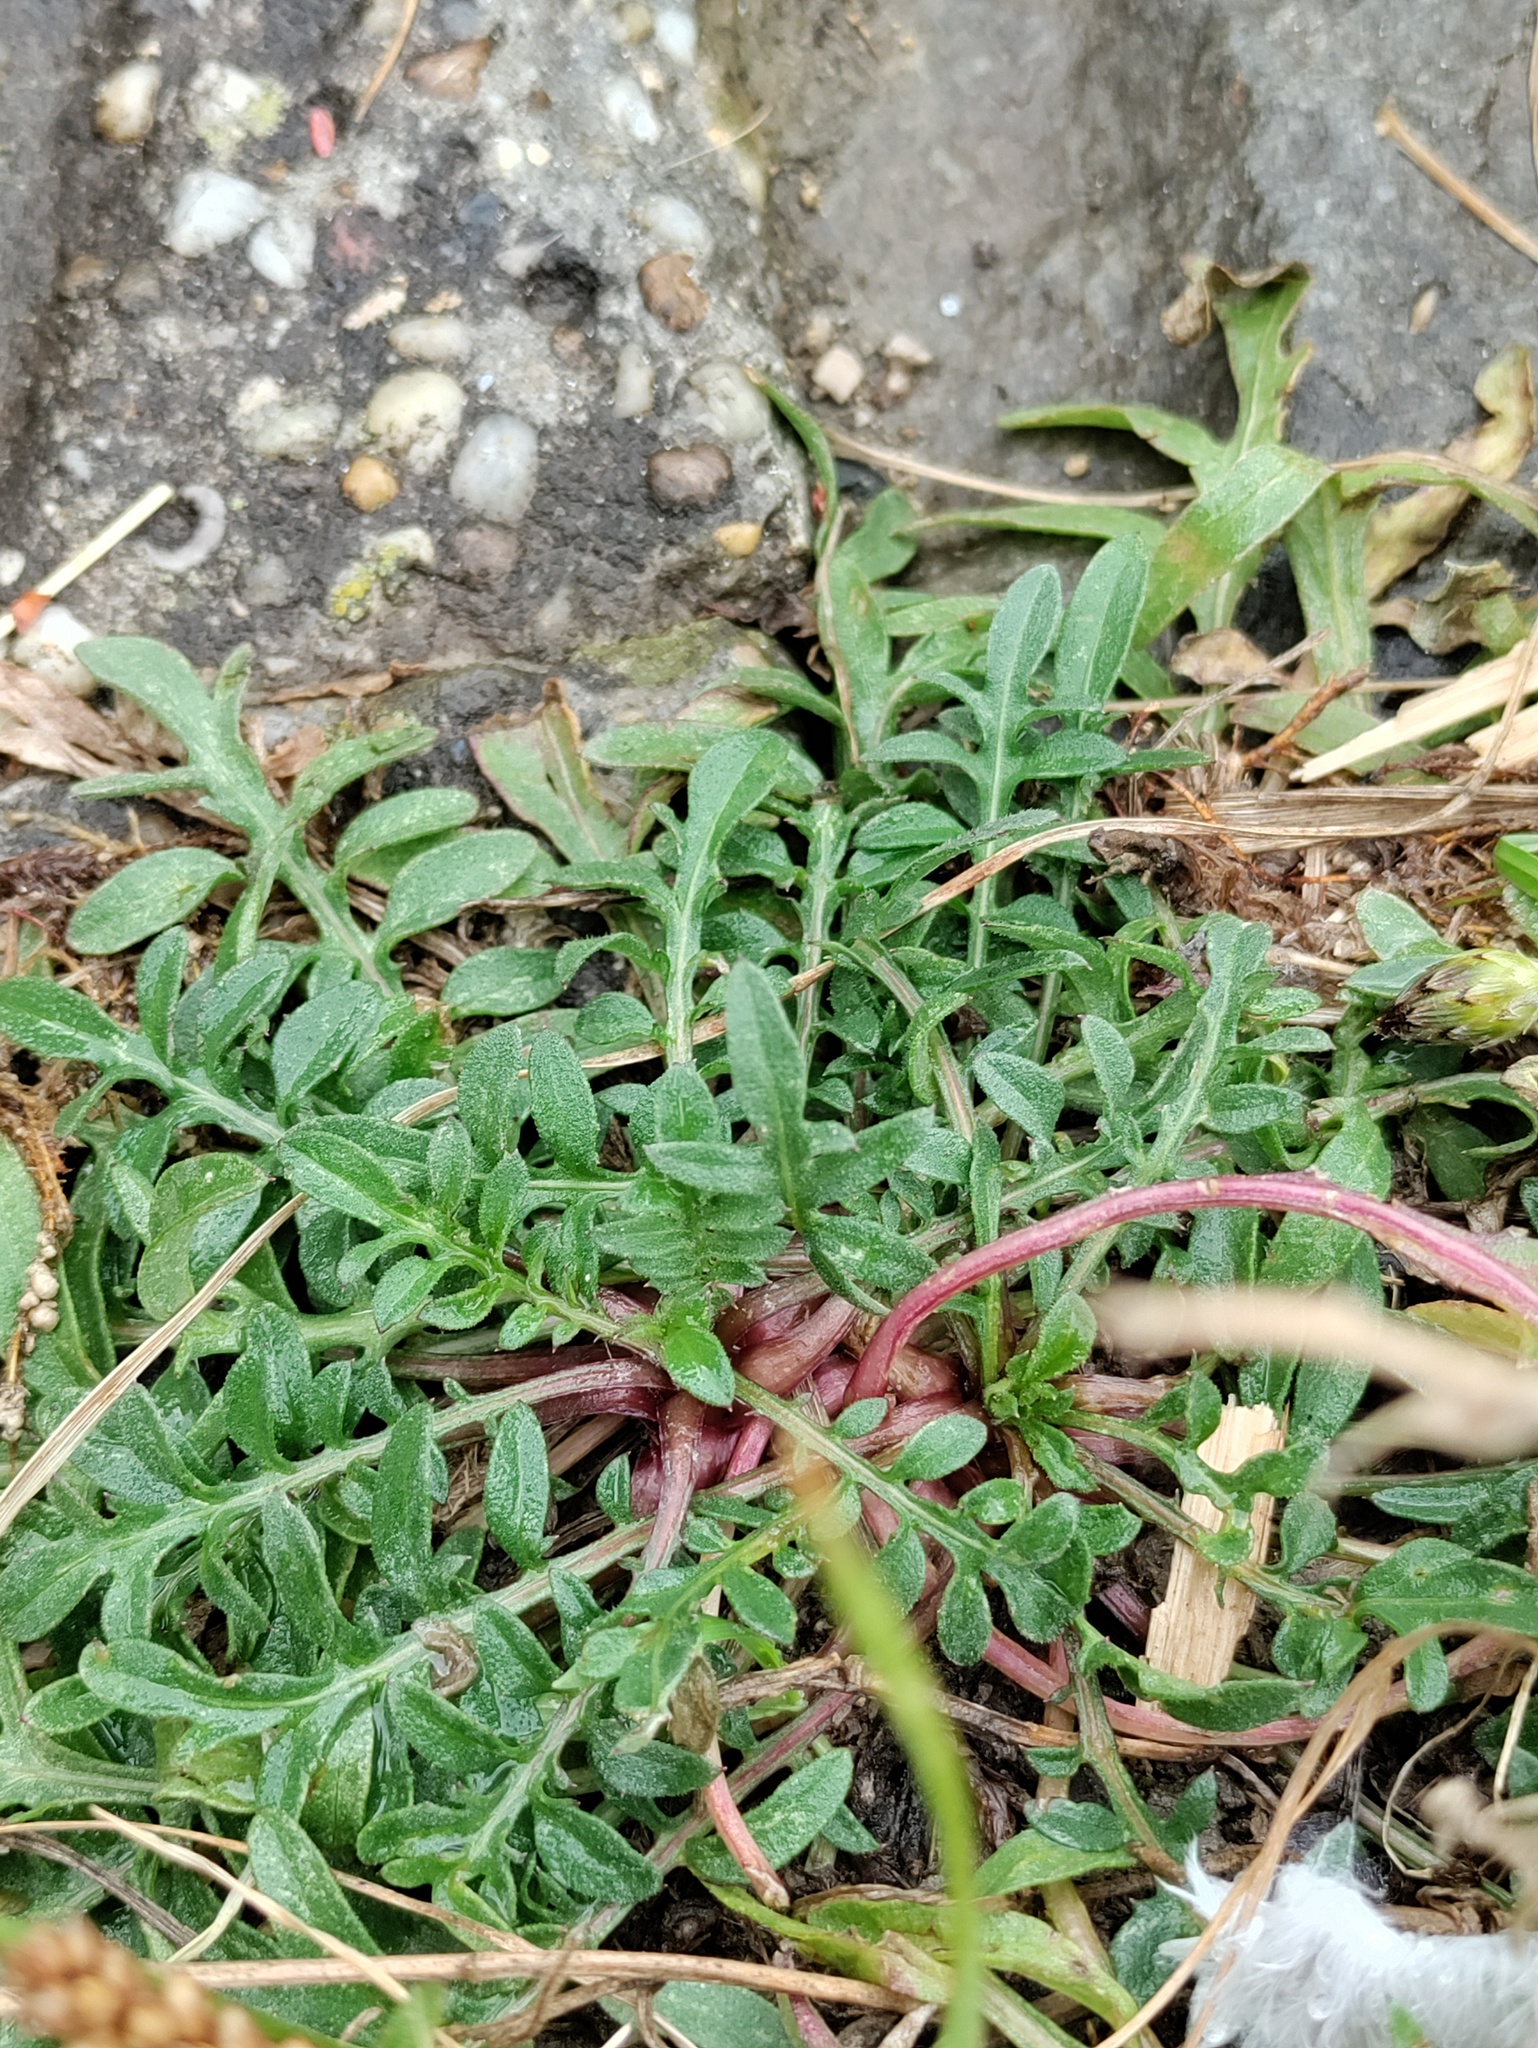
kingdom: Plantae
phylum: Tracheophyta
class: Magnoliopsida
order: Asterales
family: Asteraceae
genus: Centaurea
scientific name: Centaurea stoebe
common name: Spotted knapweed
